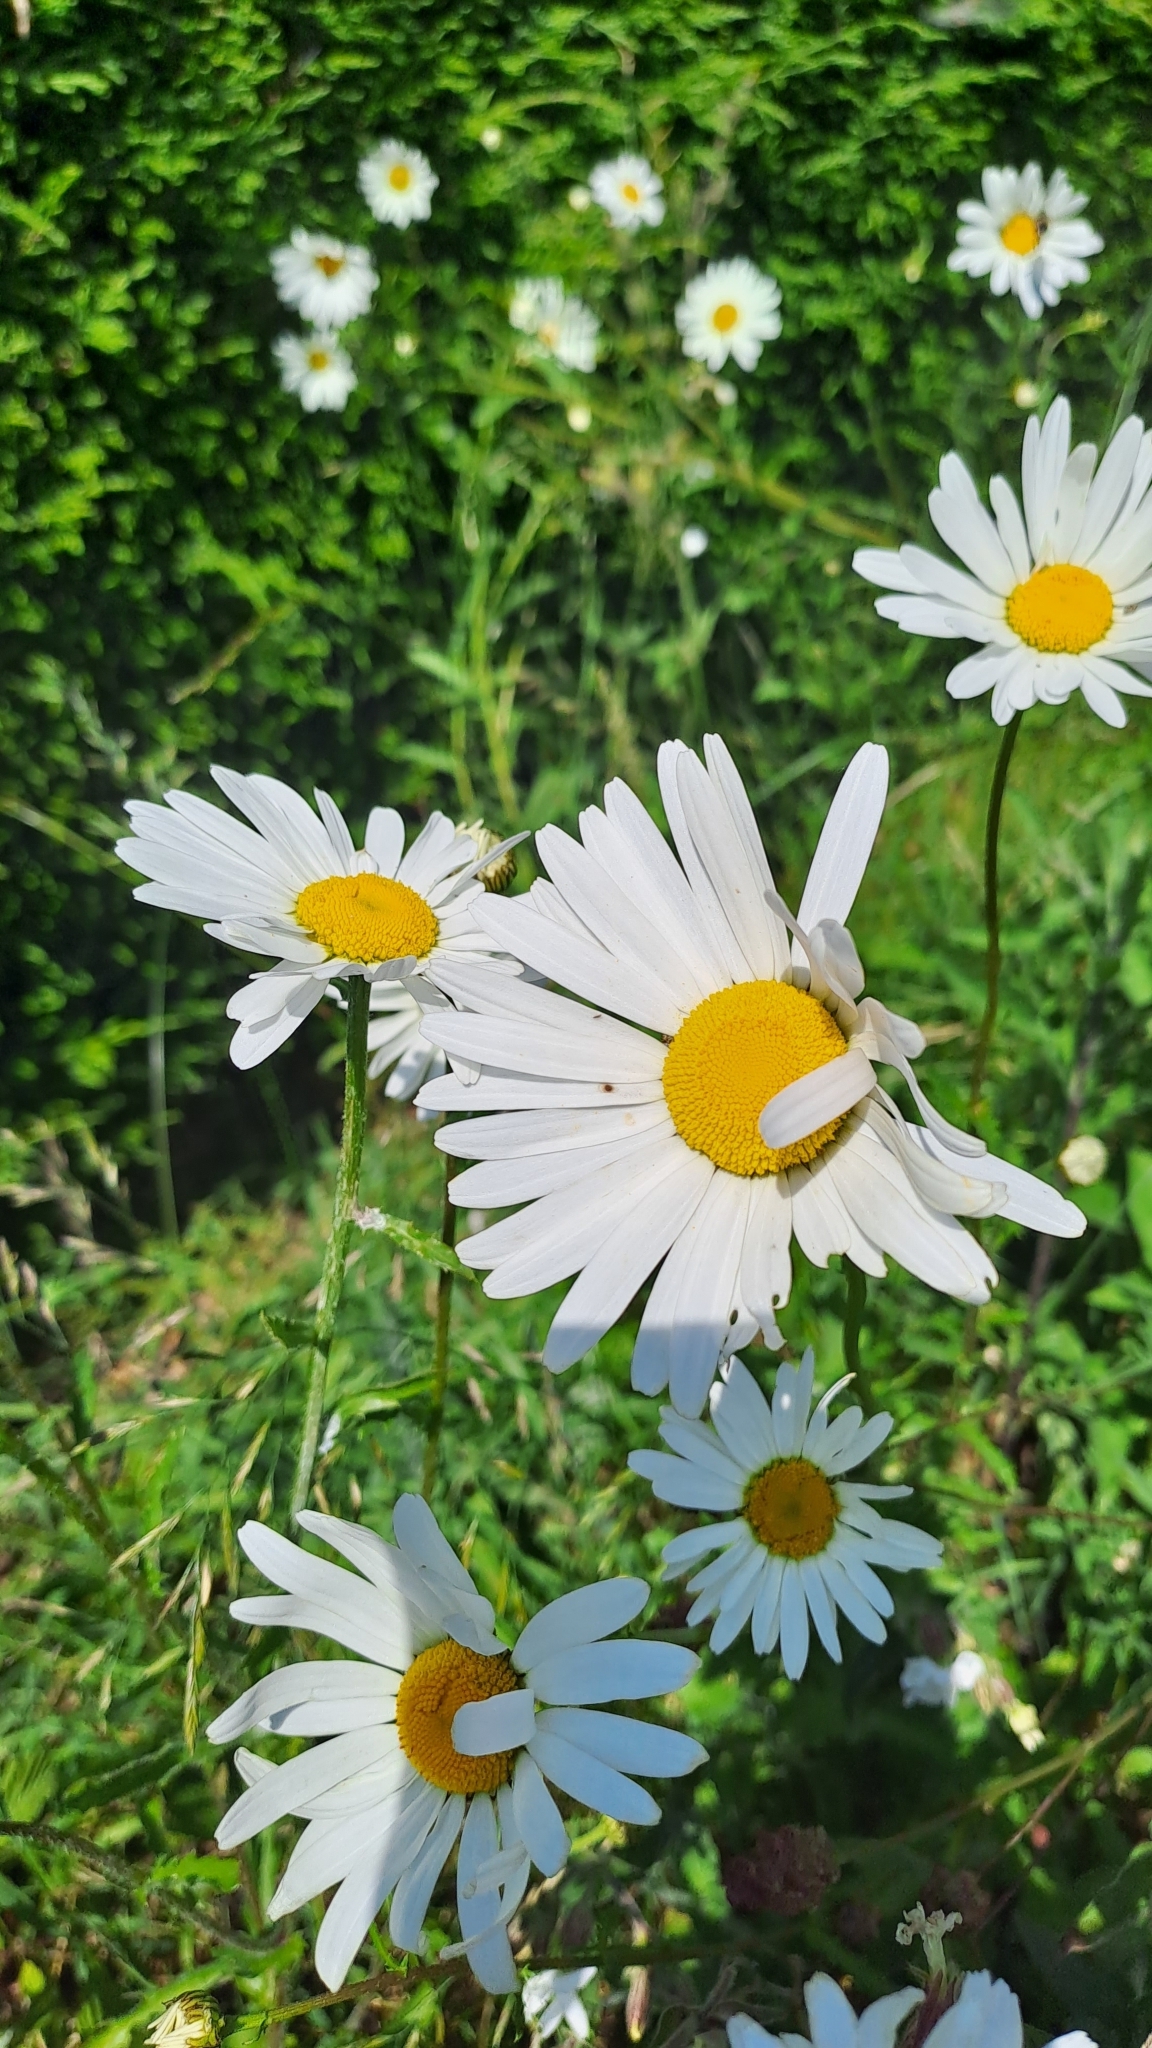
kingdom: Plantae
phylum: Tracheophyta
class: Magnoliopsida
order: Asterales
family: Asteraceae
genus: Leucanthemum
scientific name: Leucanthemum vulgare
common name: Oxeye daisy
